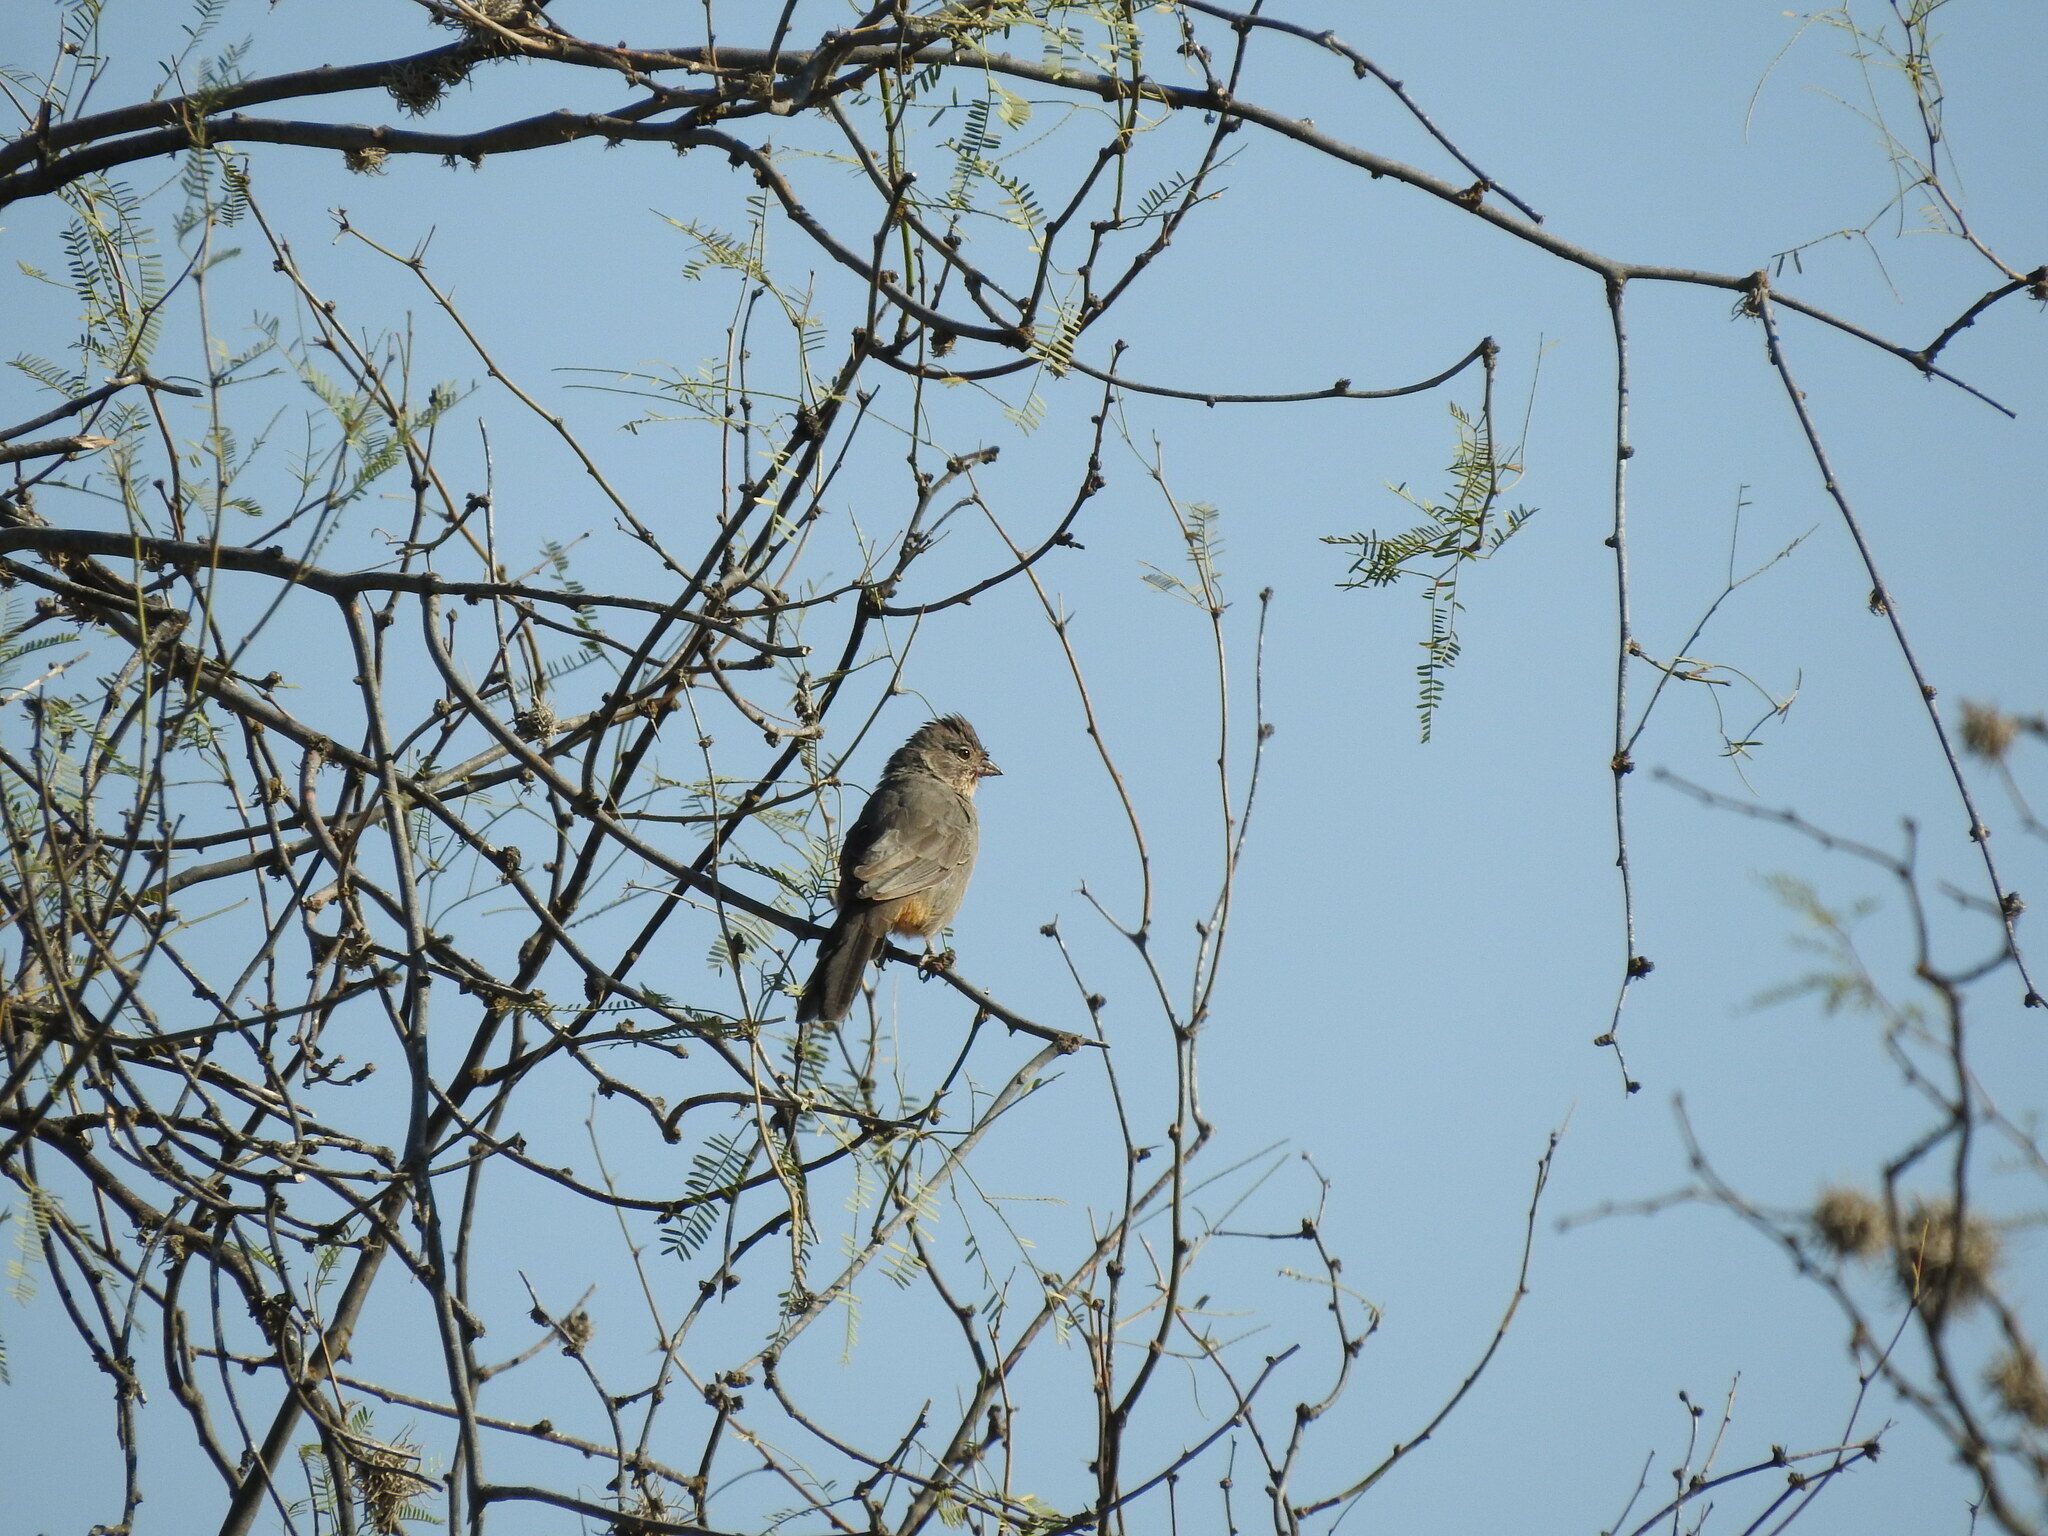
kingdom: Animalia
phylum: Chordata
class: Aves
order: Passeriformes
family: Passerellidae
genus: Melozone
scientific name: Melozone fusca
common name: Canyon towhee
